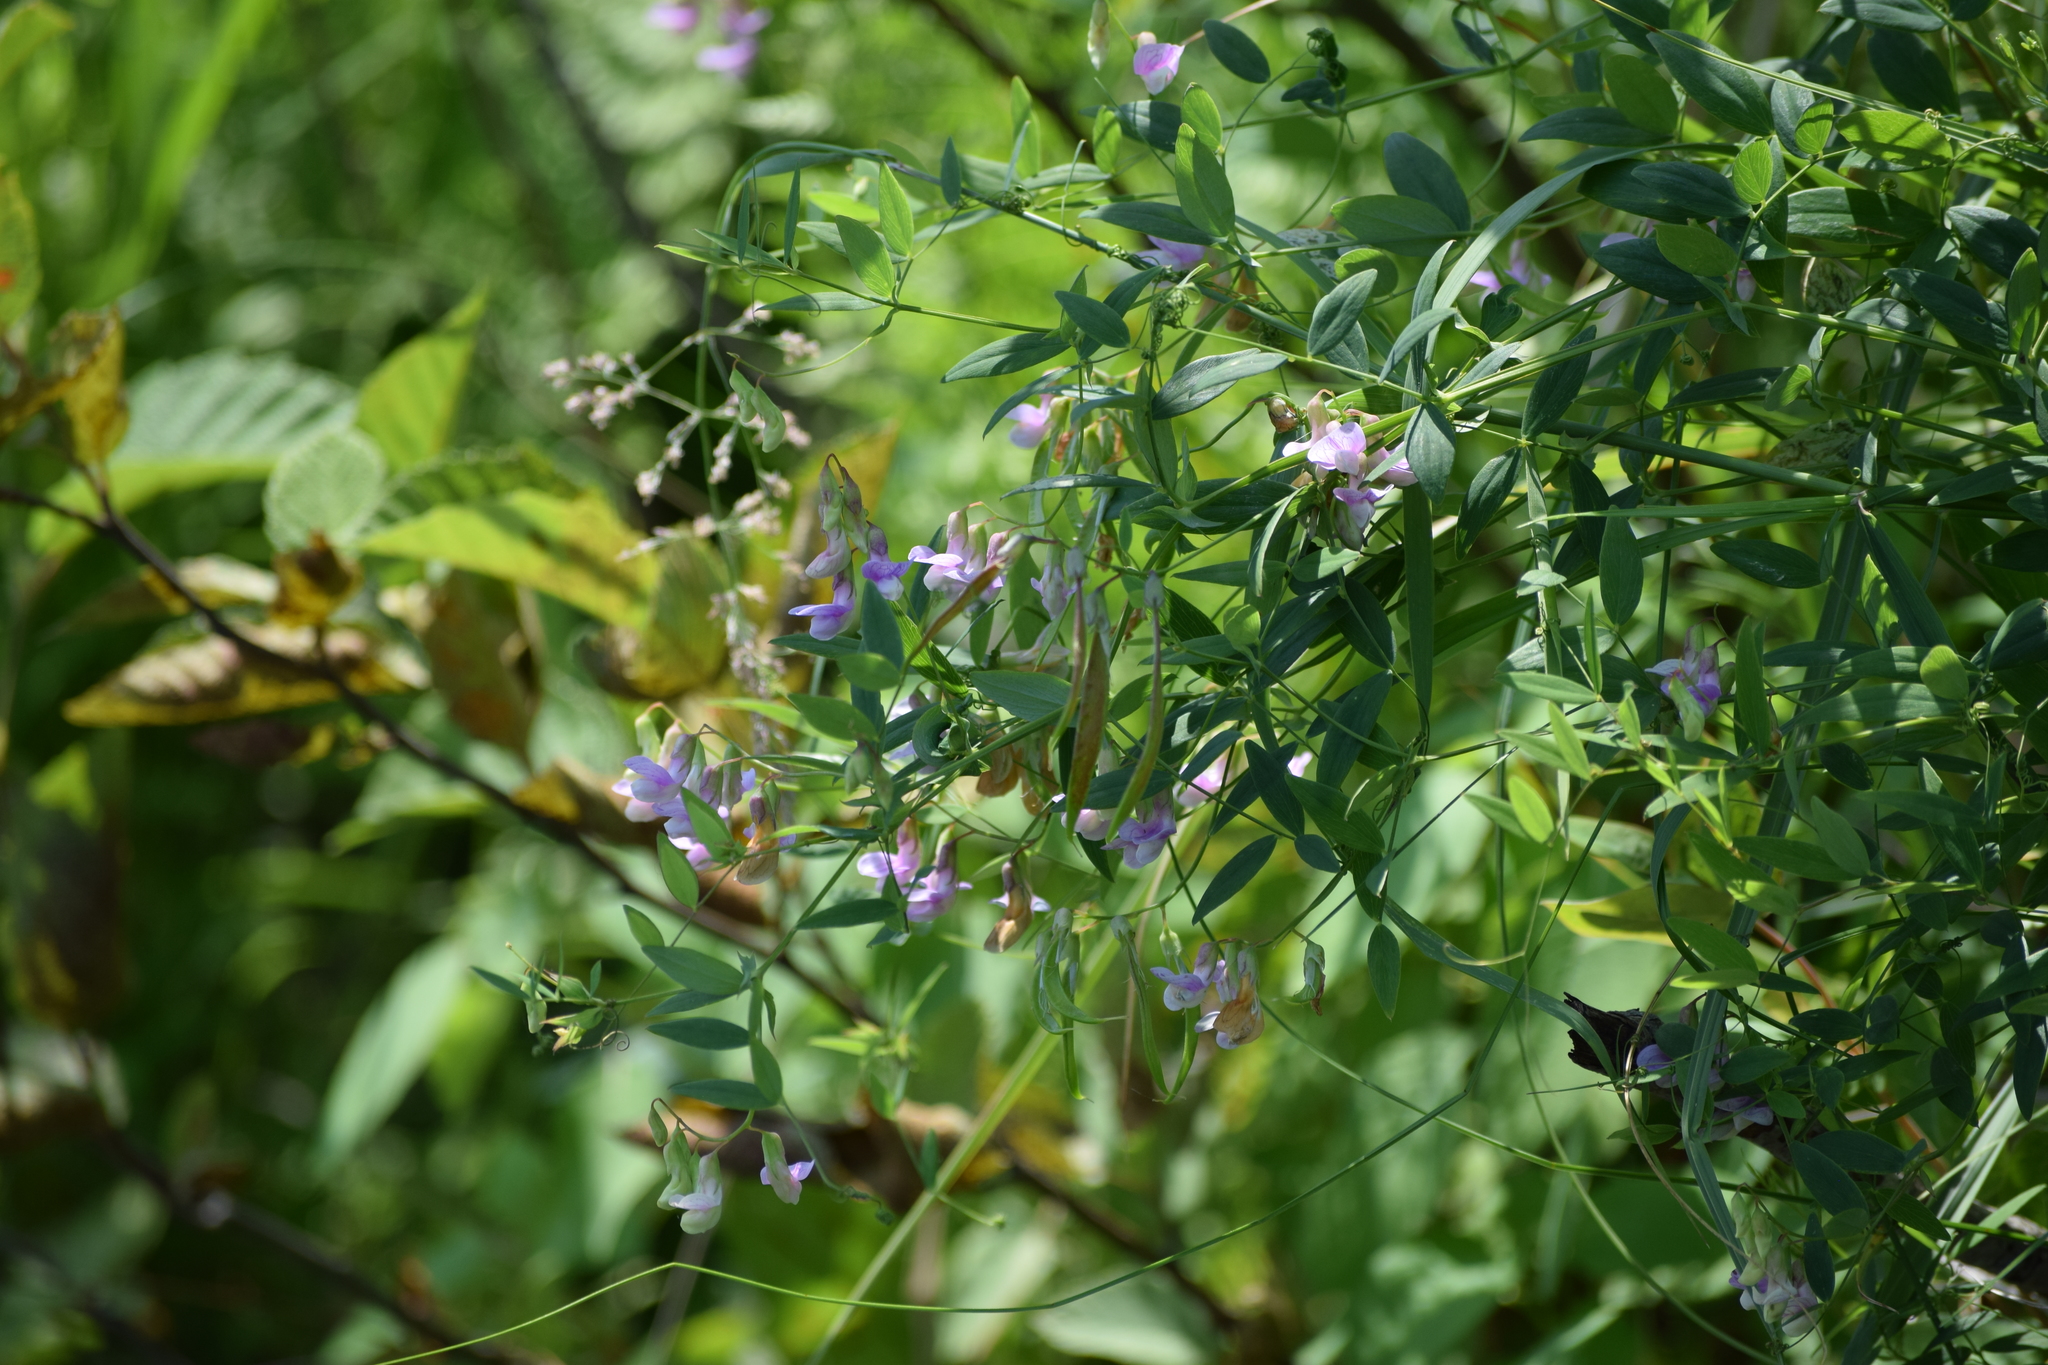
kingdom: Plantae
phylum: Tracheophyta
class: Magnoliopsida
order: Fabales
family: Fabaceae
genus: Lathyrus
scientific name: Lathyrus palustris
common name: Marsh pea
